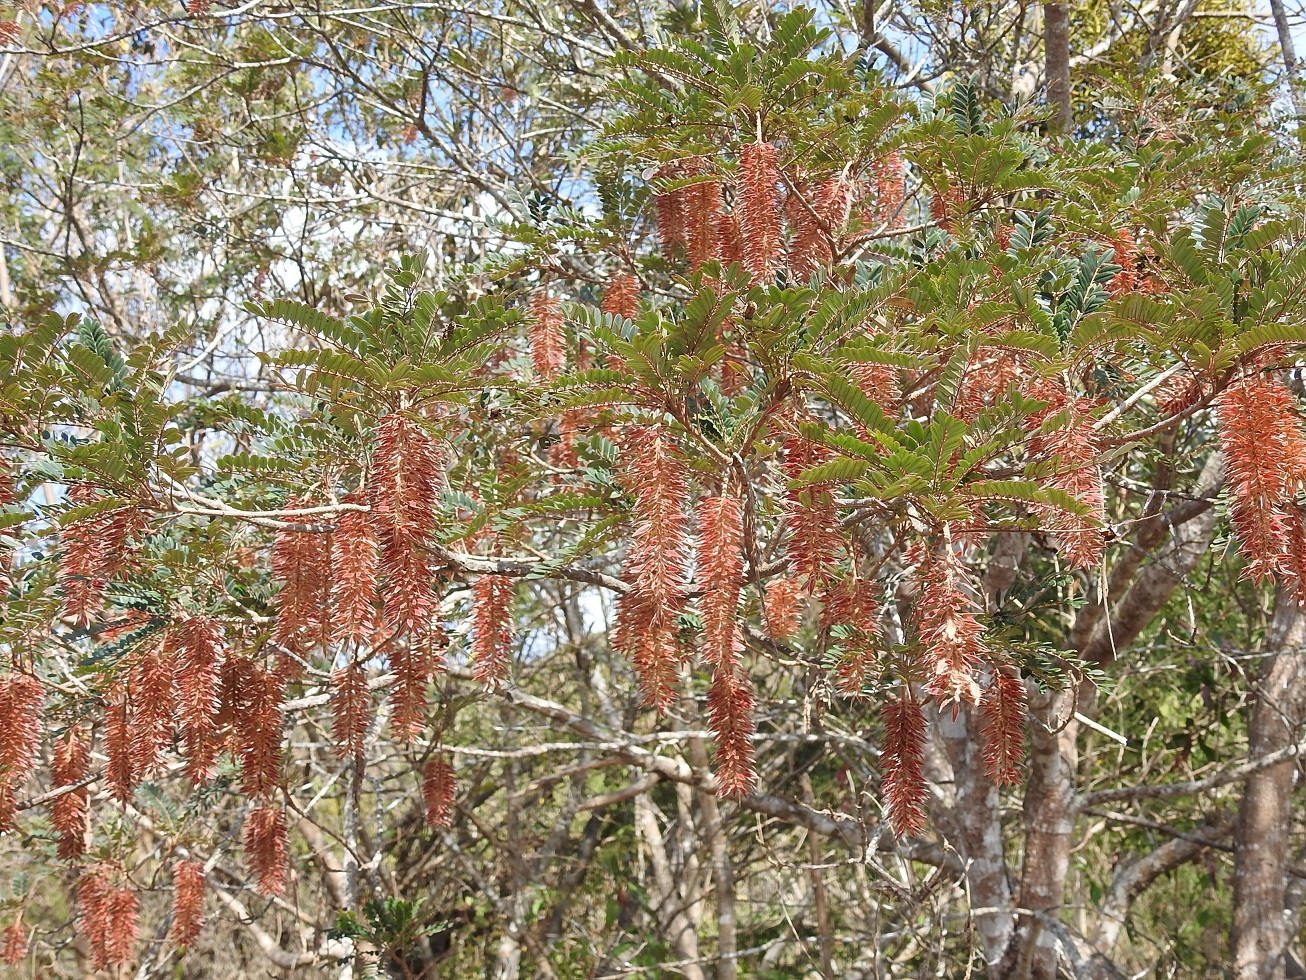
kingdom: Plantae
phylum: Tracheophyta
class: Magnoliopsida
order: Picramniales
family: Picramniaceae
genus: Alvaradoa
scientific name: Alvaradoa amorphoides
